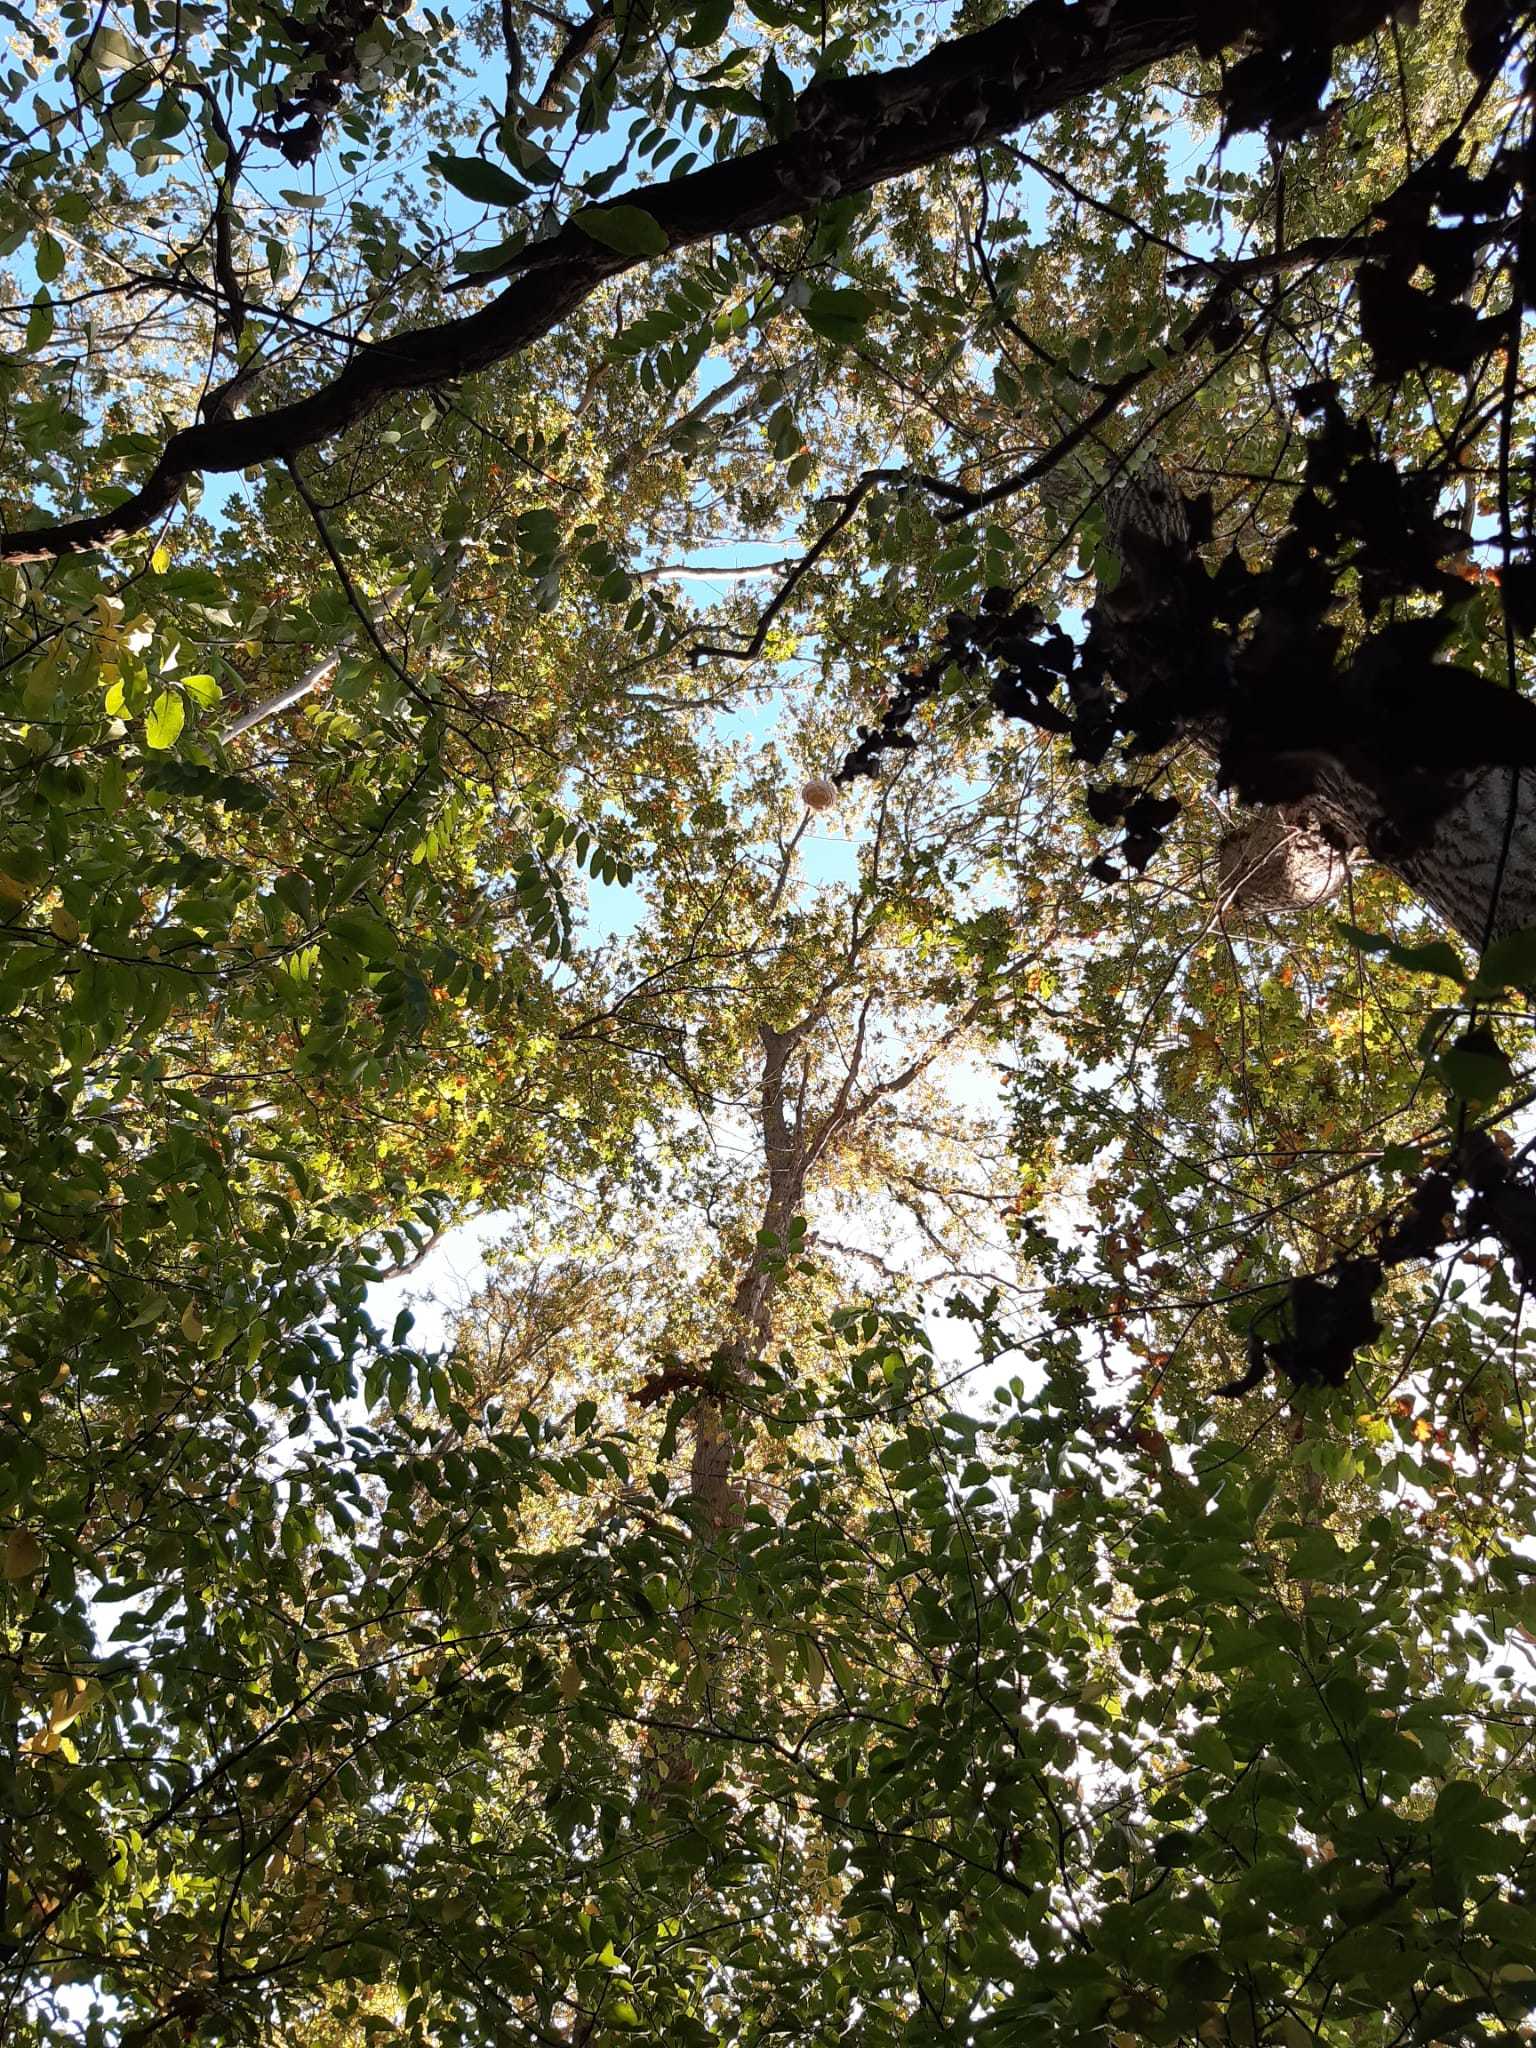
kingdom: Animalia
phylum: Arthropoda
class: Insecta
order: Hymenoptera
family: Vespidae
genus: Vespa
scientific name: Vespa velutina
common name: Asian hornet
